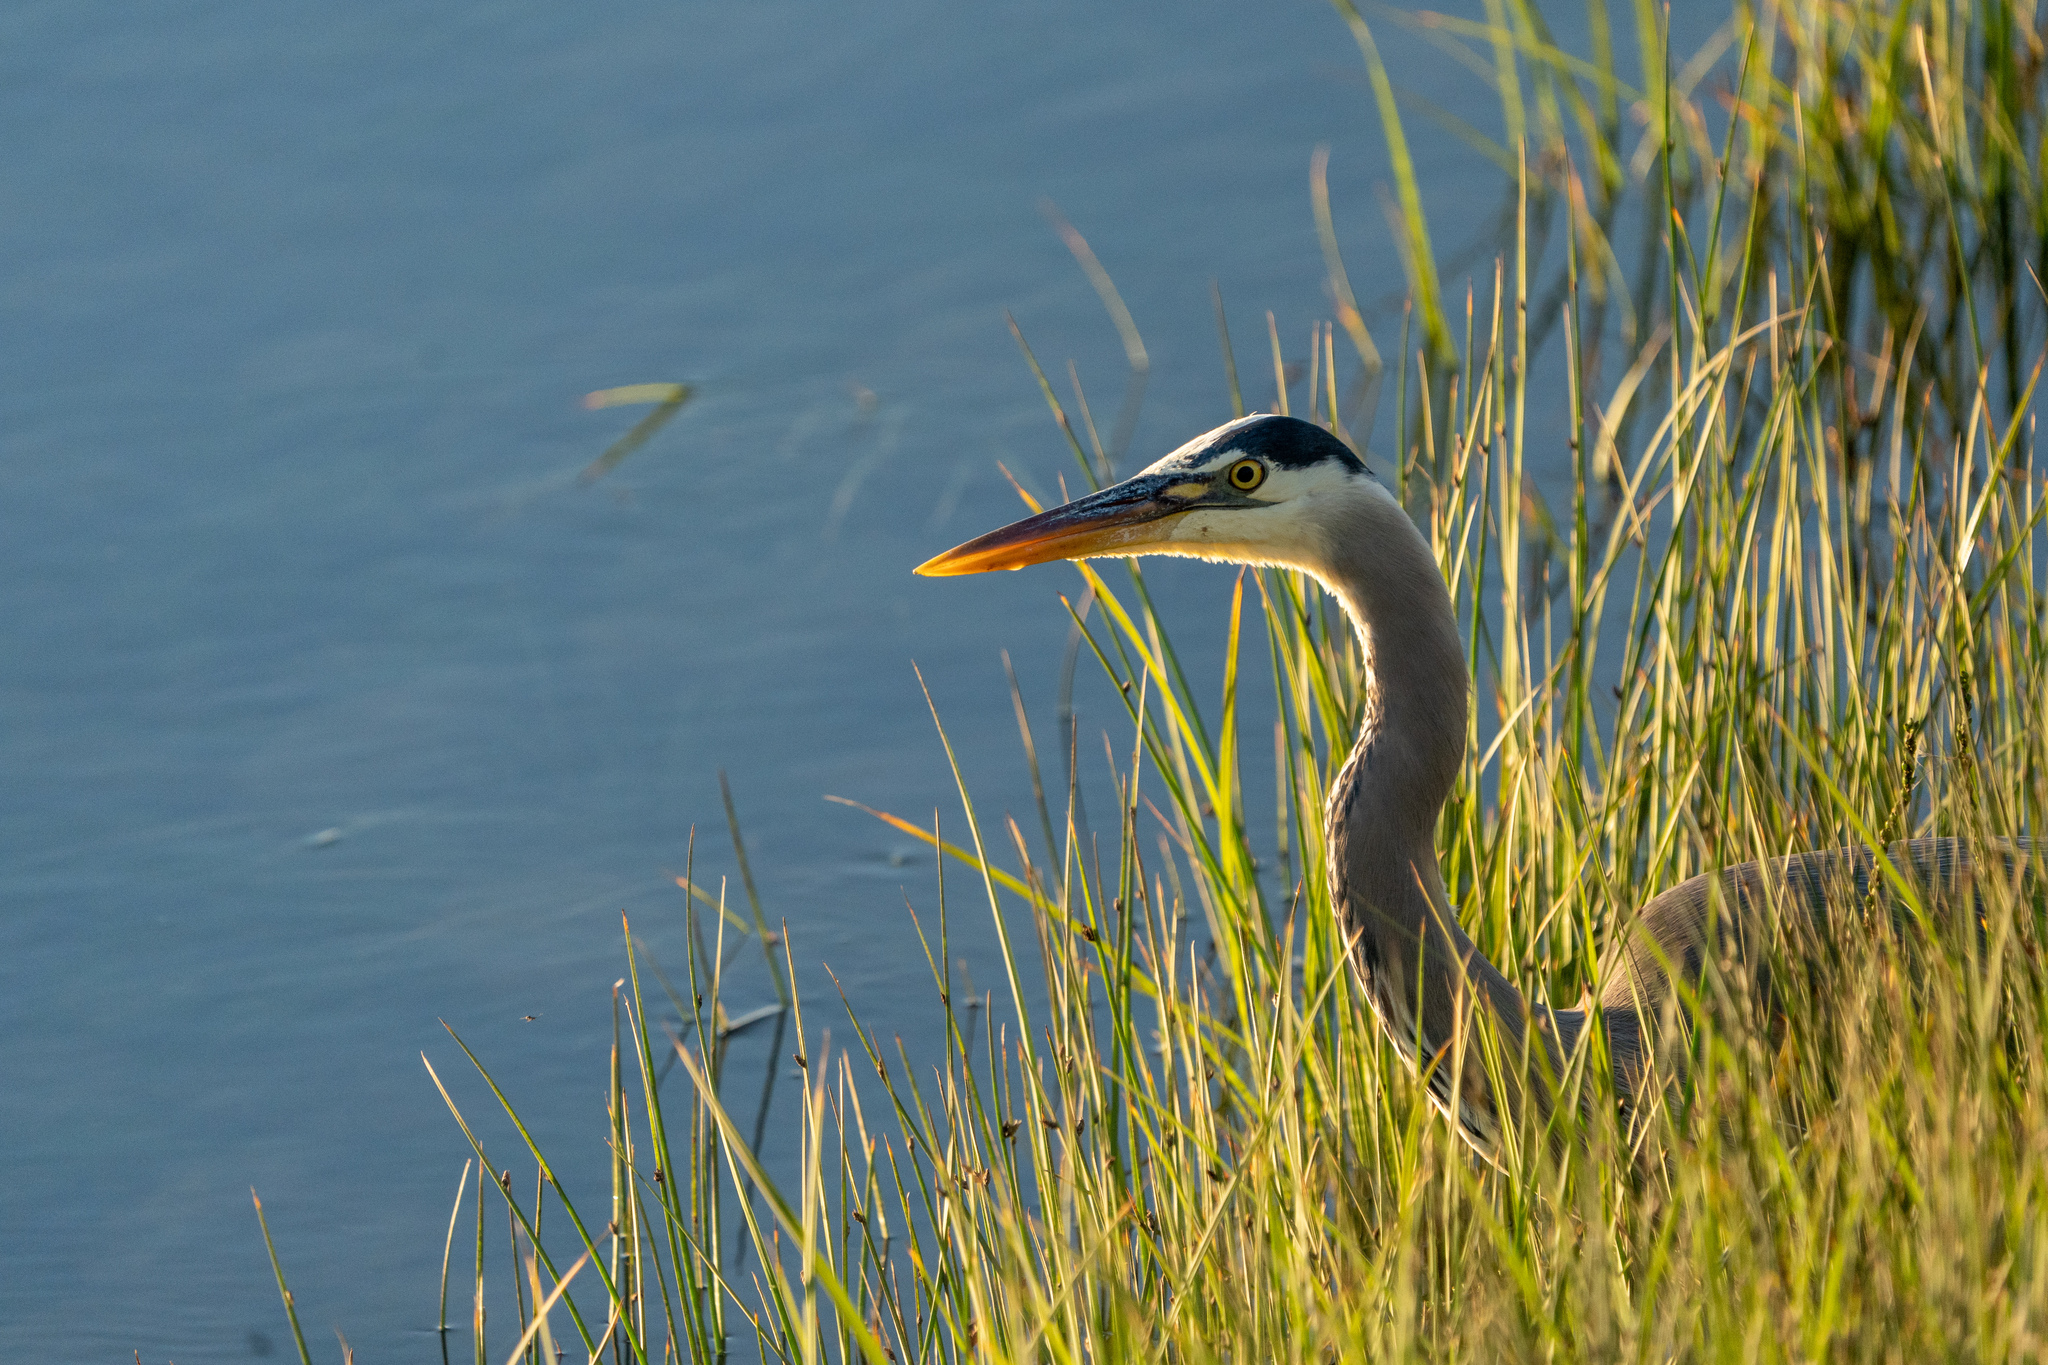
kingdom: Animalia
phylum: Chordata
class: Aves
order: Pelecaniformes
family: Ardeidae
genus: Ardea
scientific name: Ardea herodias
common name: Great blue heron
